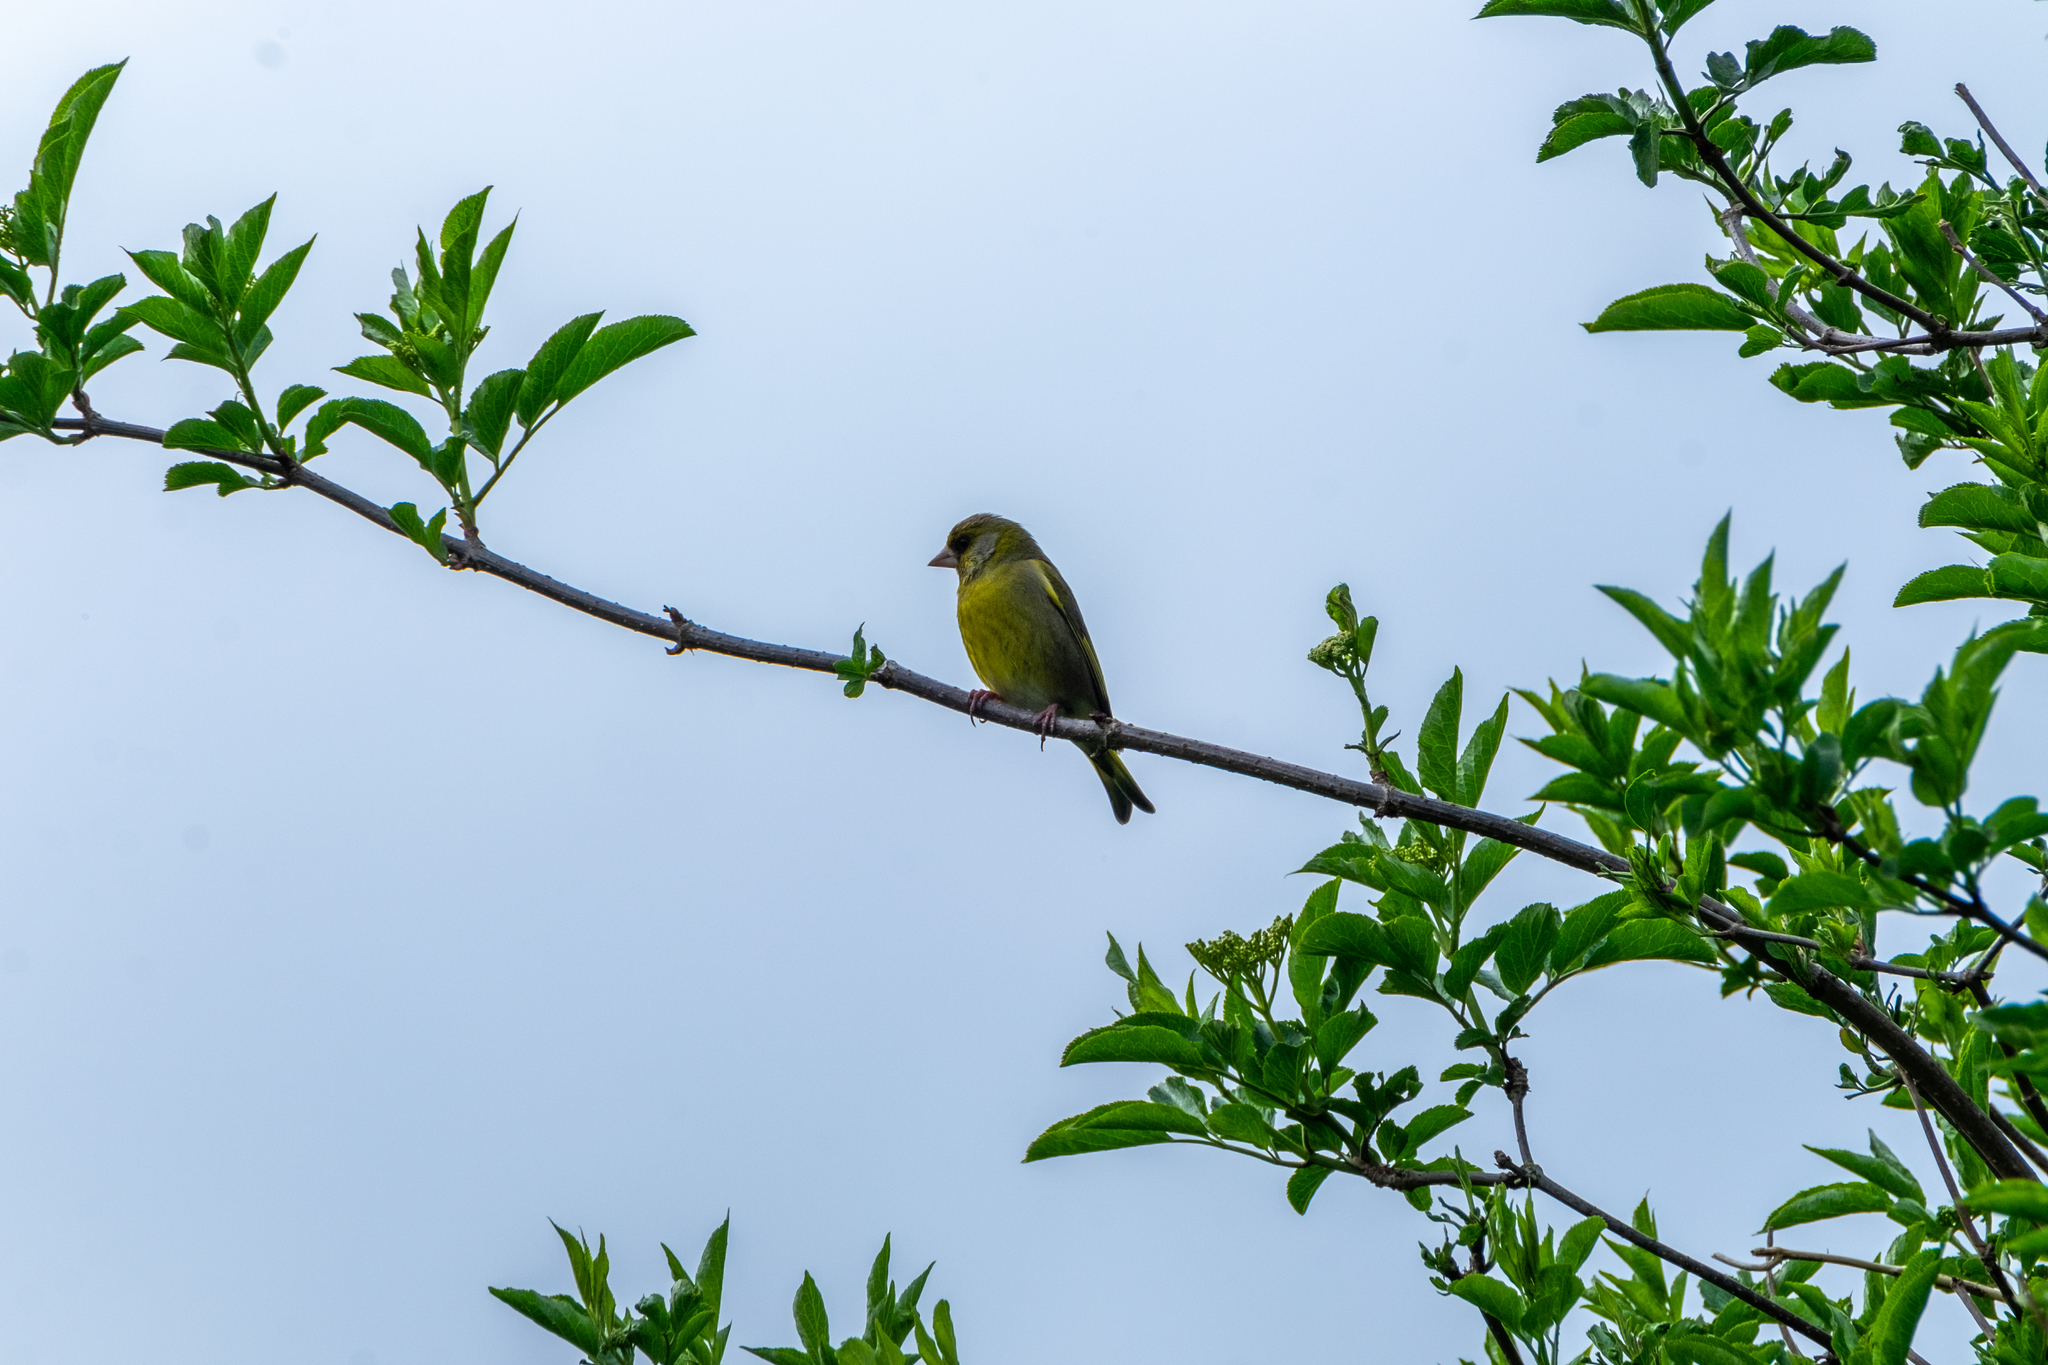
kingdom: Plantae
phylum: Tracheophyta
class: Liliopsida
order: Poales
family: Poaceae
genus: Chloris
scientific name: Chloris chloris
